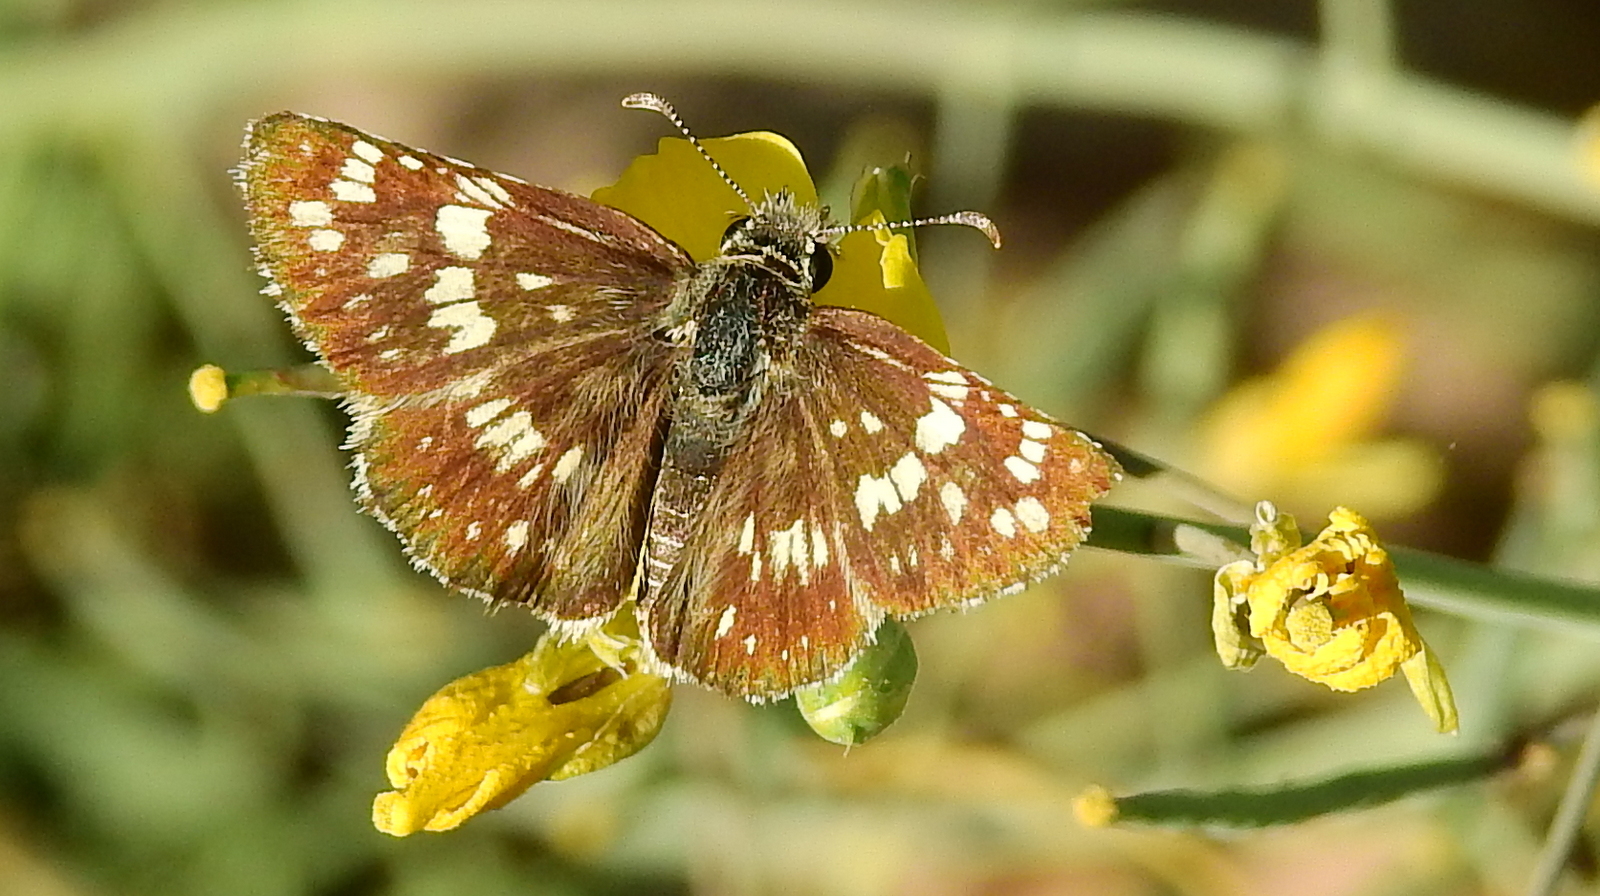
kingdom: Animalia
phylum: Arthropoda
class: Insecta
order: Lepidoptera
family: Hesperiidae
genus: Burnsius
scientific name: Burnsius orcynoides
